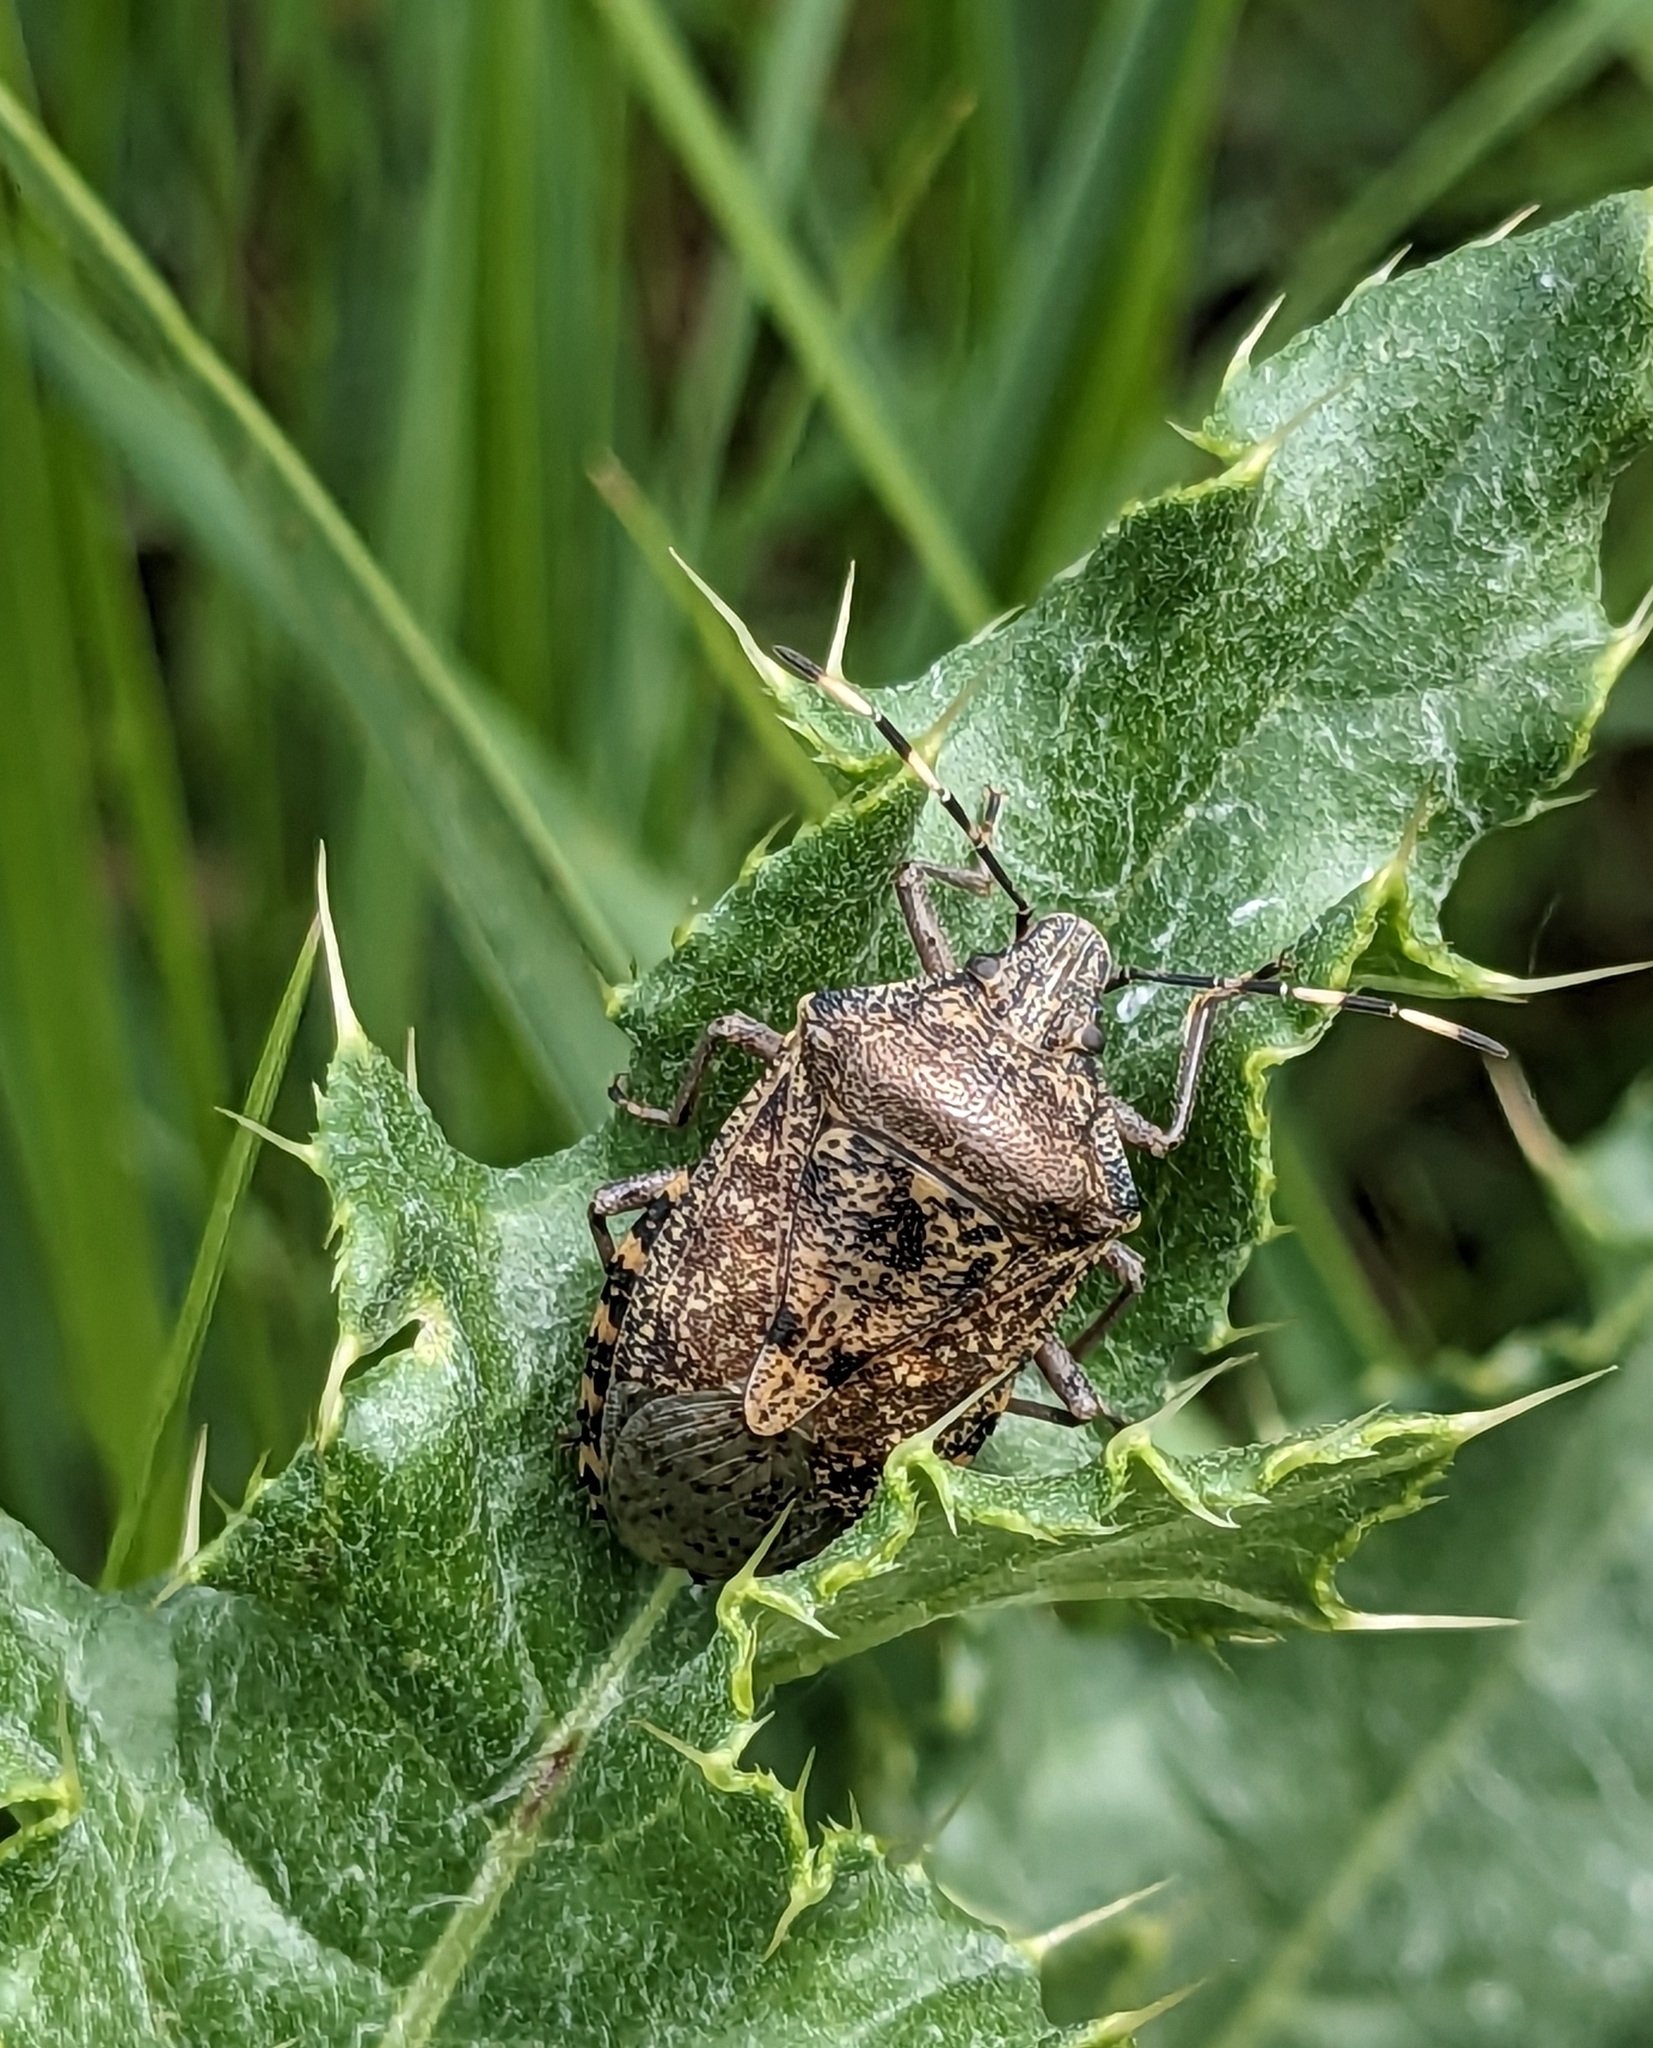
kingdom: Animalia
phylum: Arthropoda
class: Insecta
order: Hemiptera
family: Pentatomidae
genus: Rhaphigaster
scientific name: Rhaphigaster nebulosa
